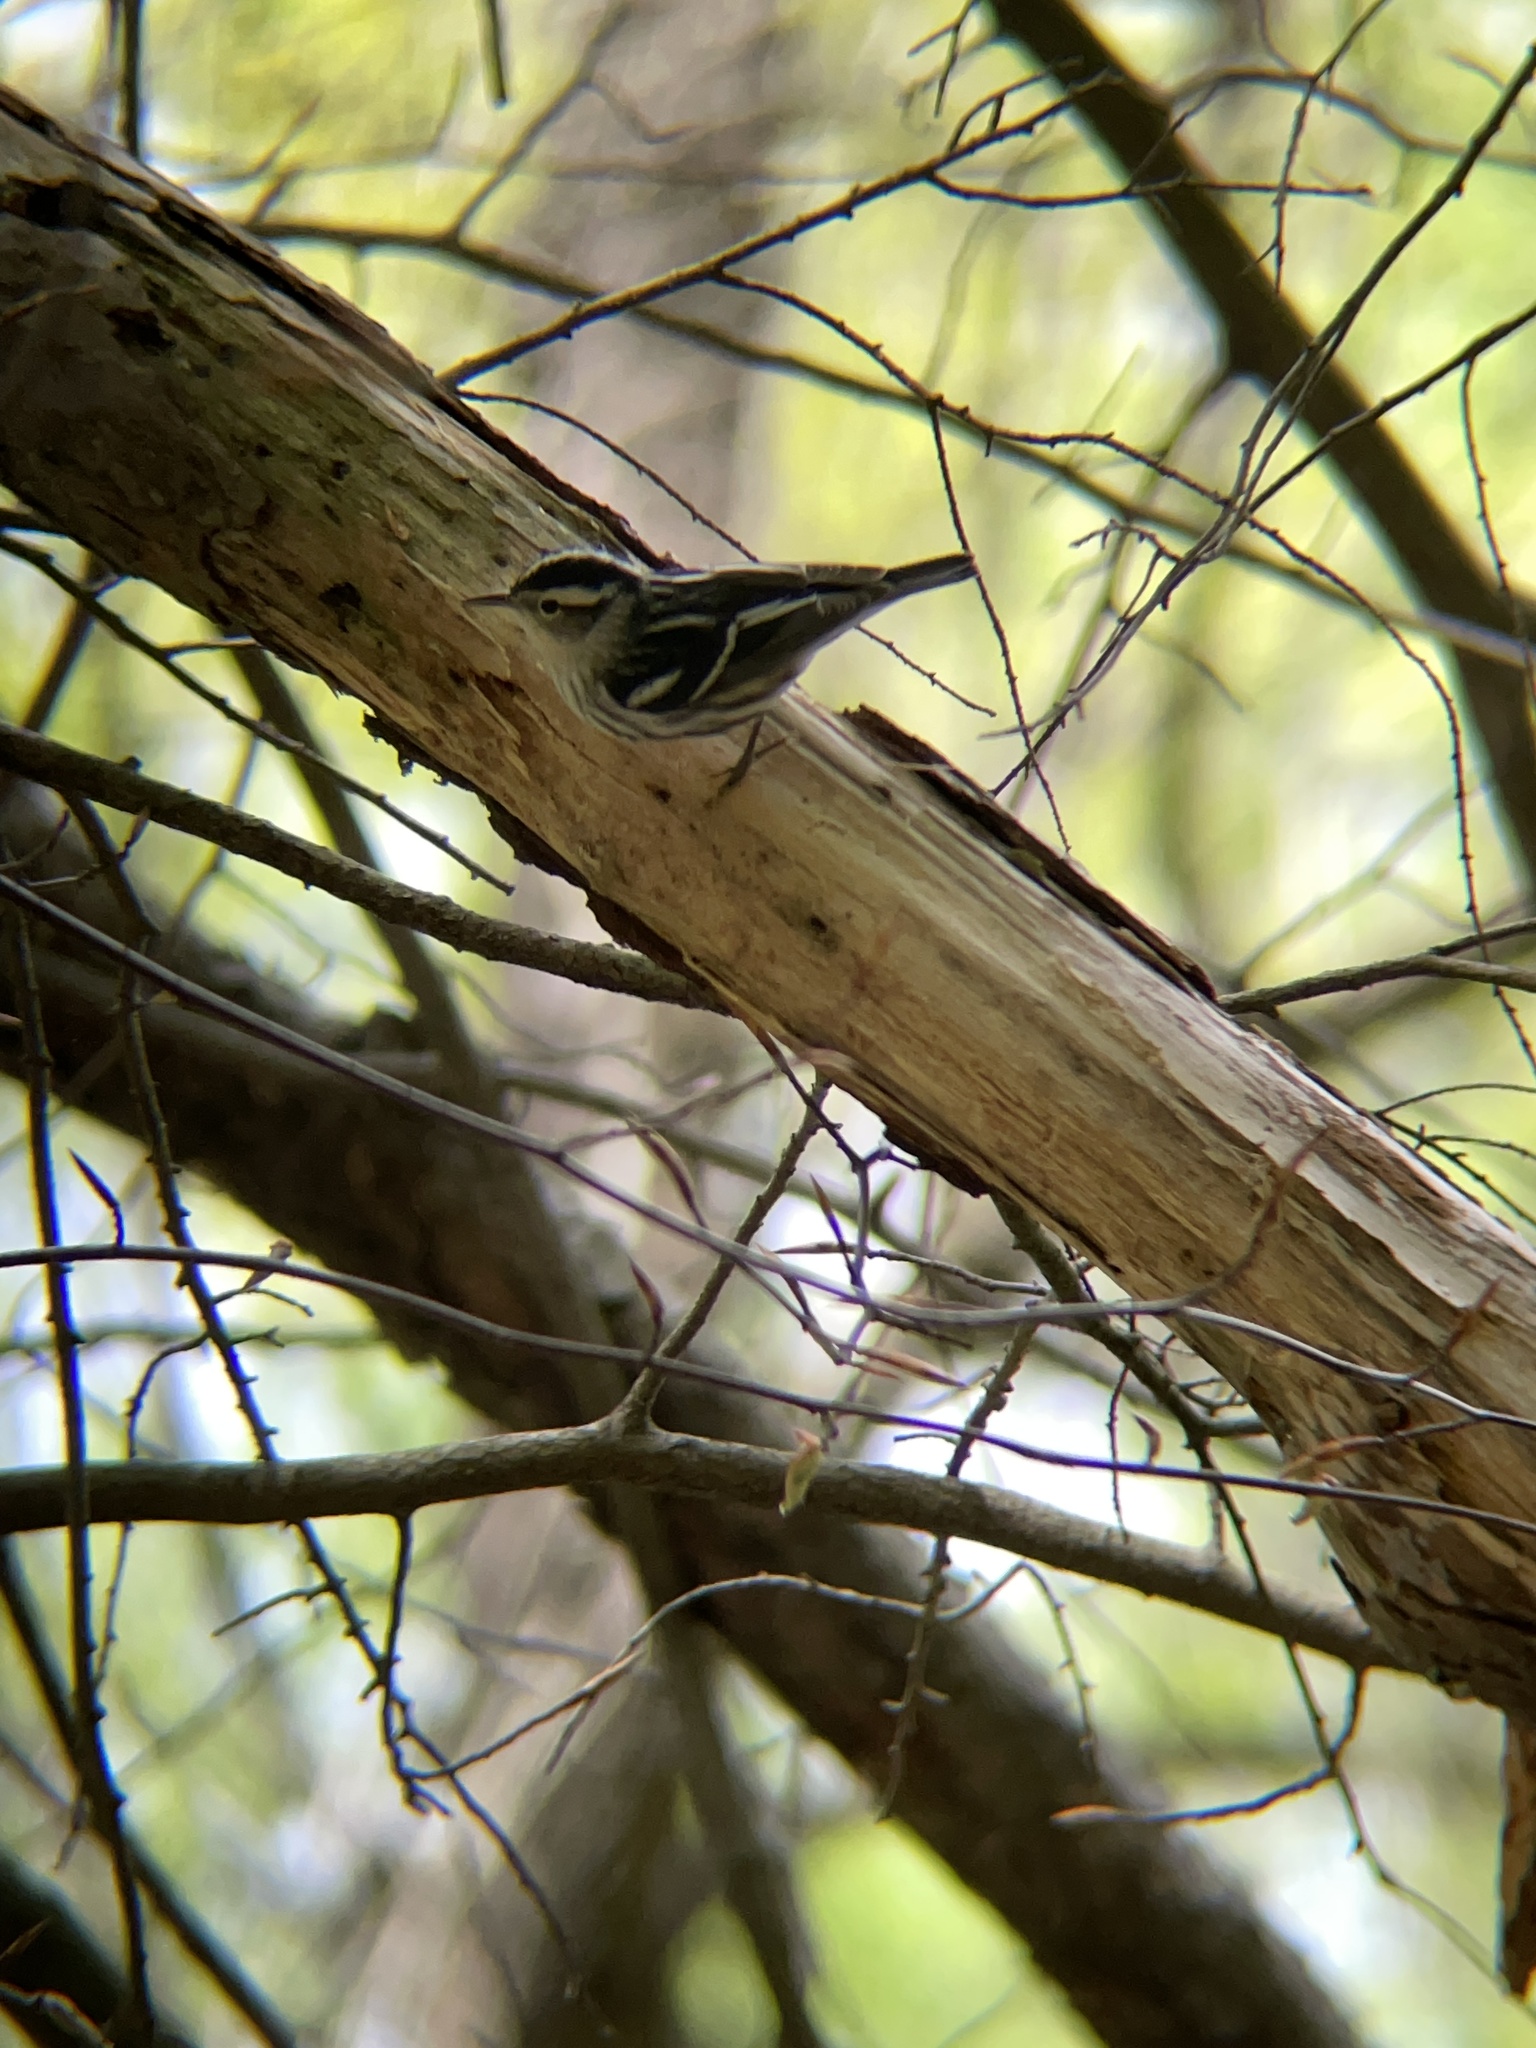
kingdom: Animalia
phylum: Chordata
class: Aves
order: Passeriformes
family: Parulidae
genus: Mniotilta
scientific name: Mniotilta varia
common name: Black-and-white warbler
